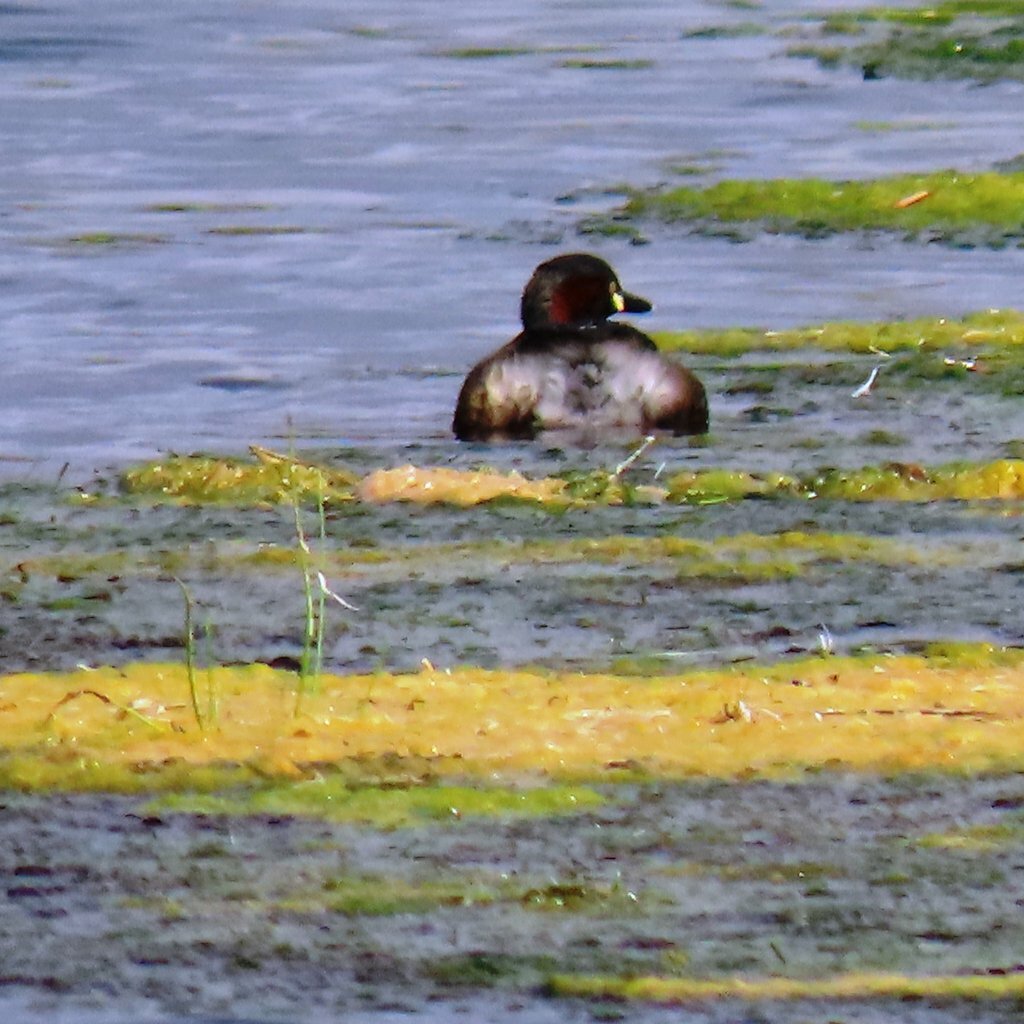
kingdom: Animalia
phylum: Chordata
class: Aves
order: Podicipediformes
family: Podicipedidae
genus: Tachybaptus
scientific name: Tachybaptus novaehollandiae
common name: Australasian grebe
